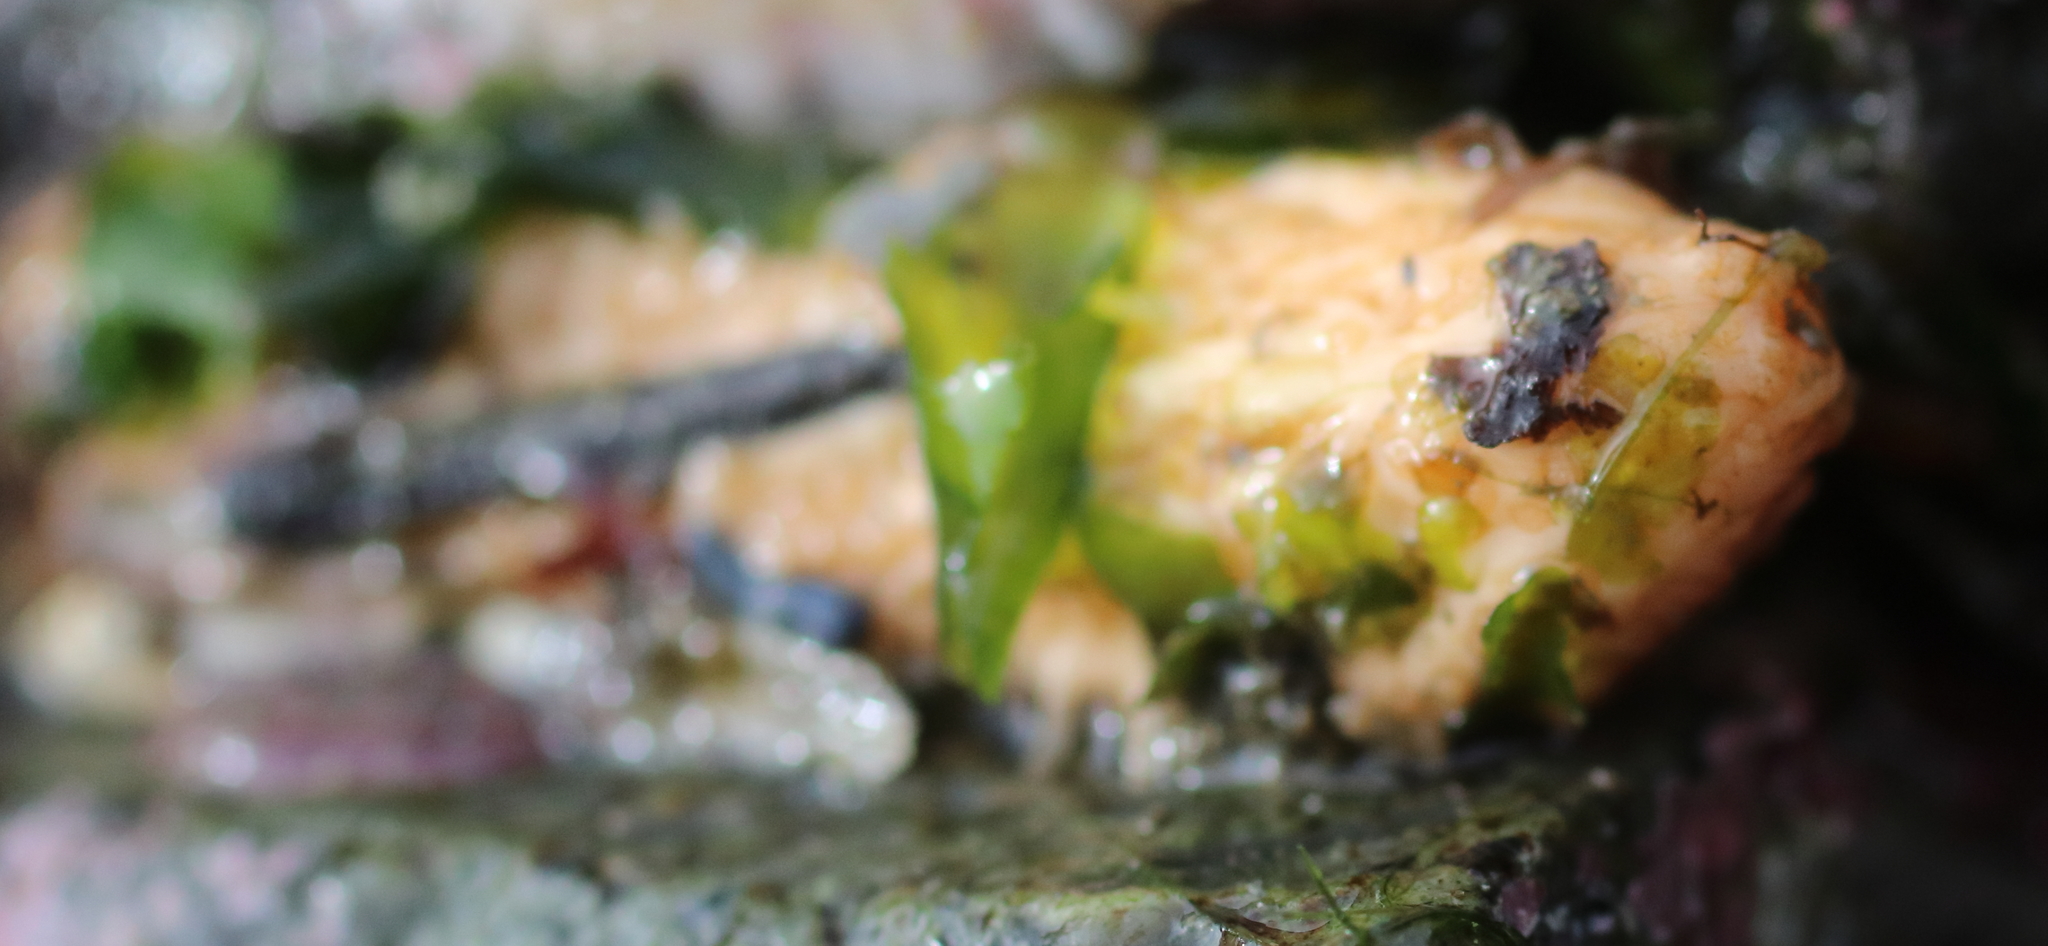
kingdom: Animalia
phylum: Echinodermata
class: Holothuroidea
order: Dendrochirotida
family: Sclerodactylidae
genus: Eupentacta
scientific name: Eupentacta pseudoquinquesemita
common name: Pseudo-white sea cucumber
